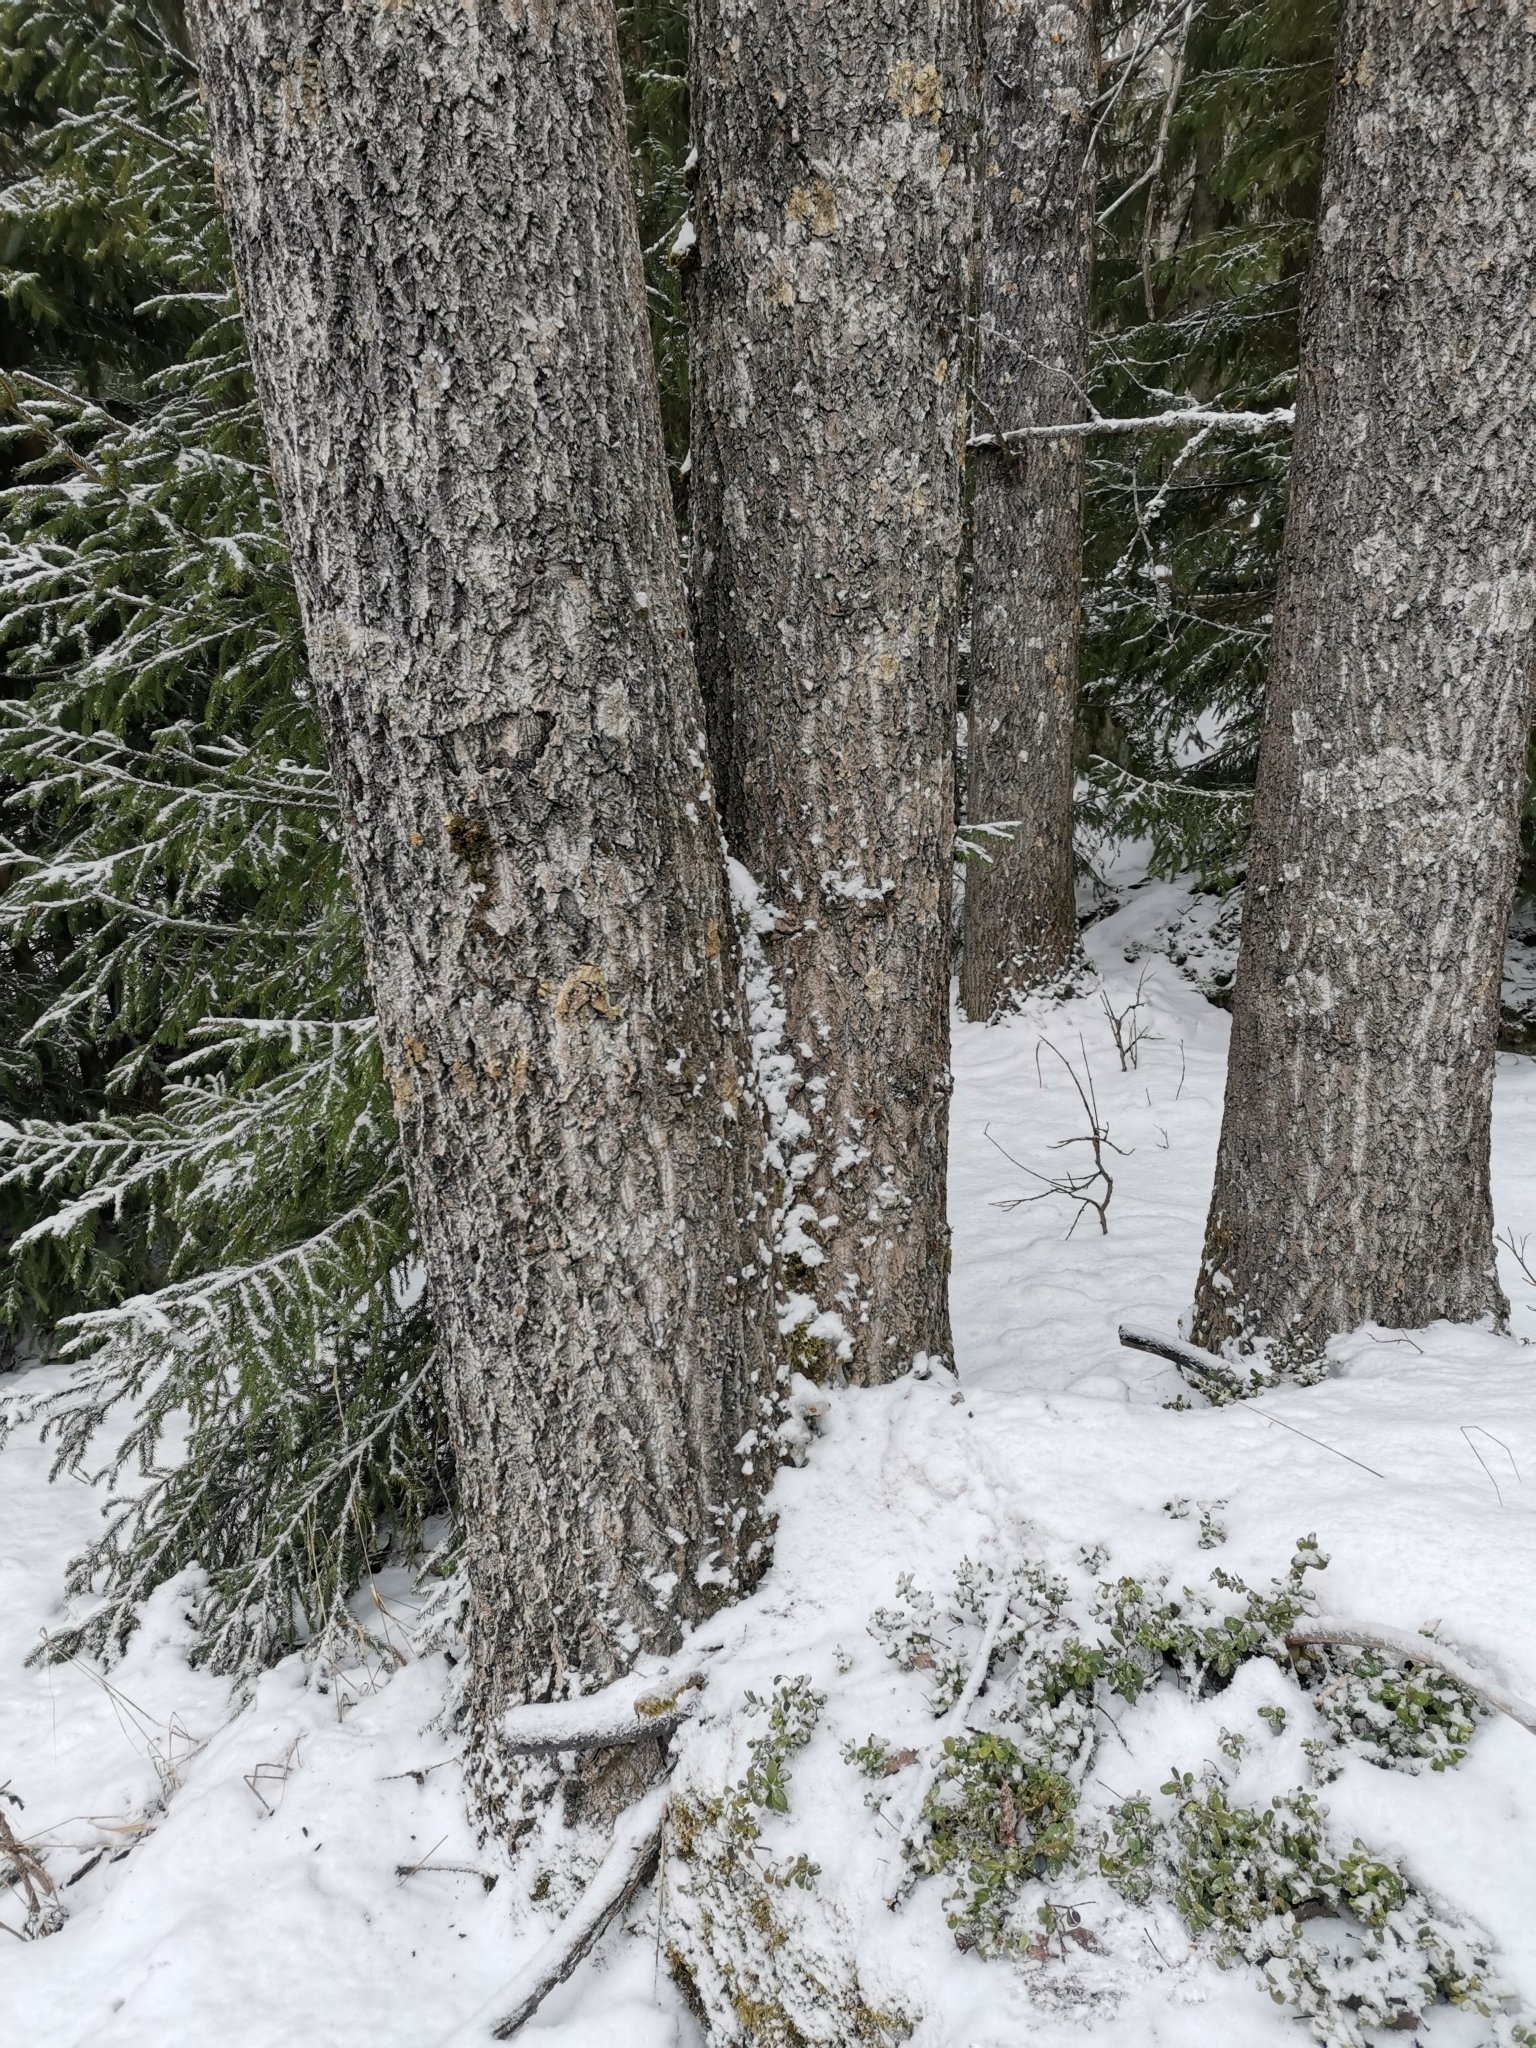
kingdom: Animalia
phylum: Chordata
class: Mammalia
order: Rodentia
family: Sciuridae
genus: Pteromys
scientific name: Pteromys volans
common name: Siberian flying squirrel
